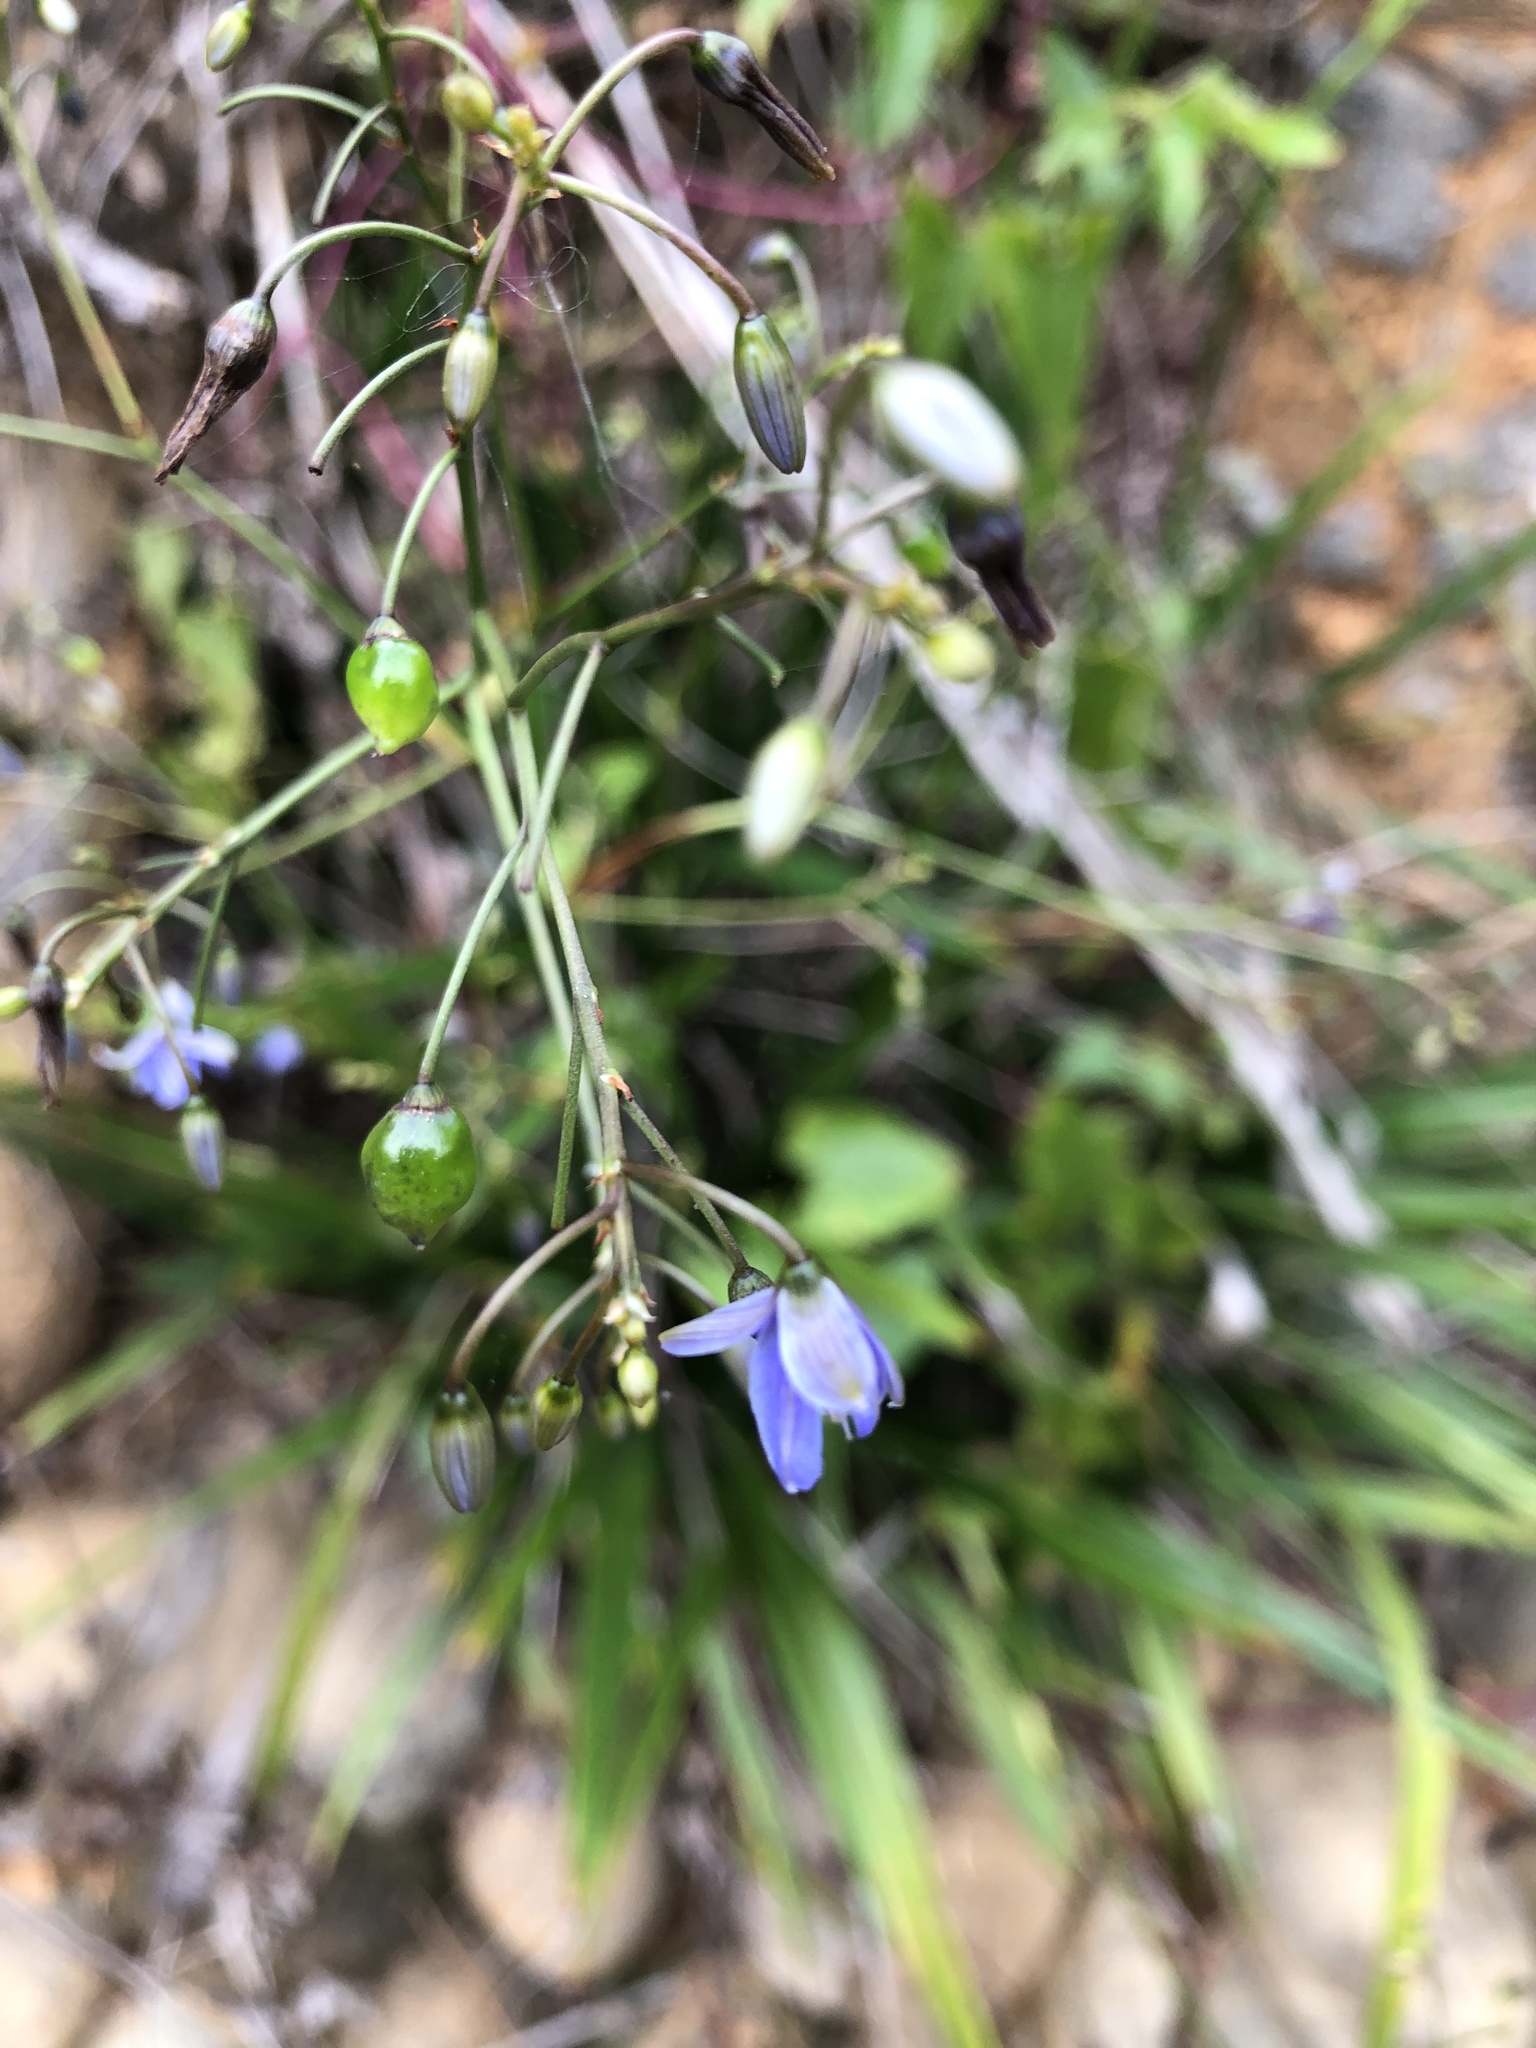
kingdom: Plantae
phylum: Tracheophyta
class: Liliopsida
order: Asparagales
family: Asphodelaceae
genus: Dianella
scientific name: Dianella ensifolia
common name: New zealand lilyplant
